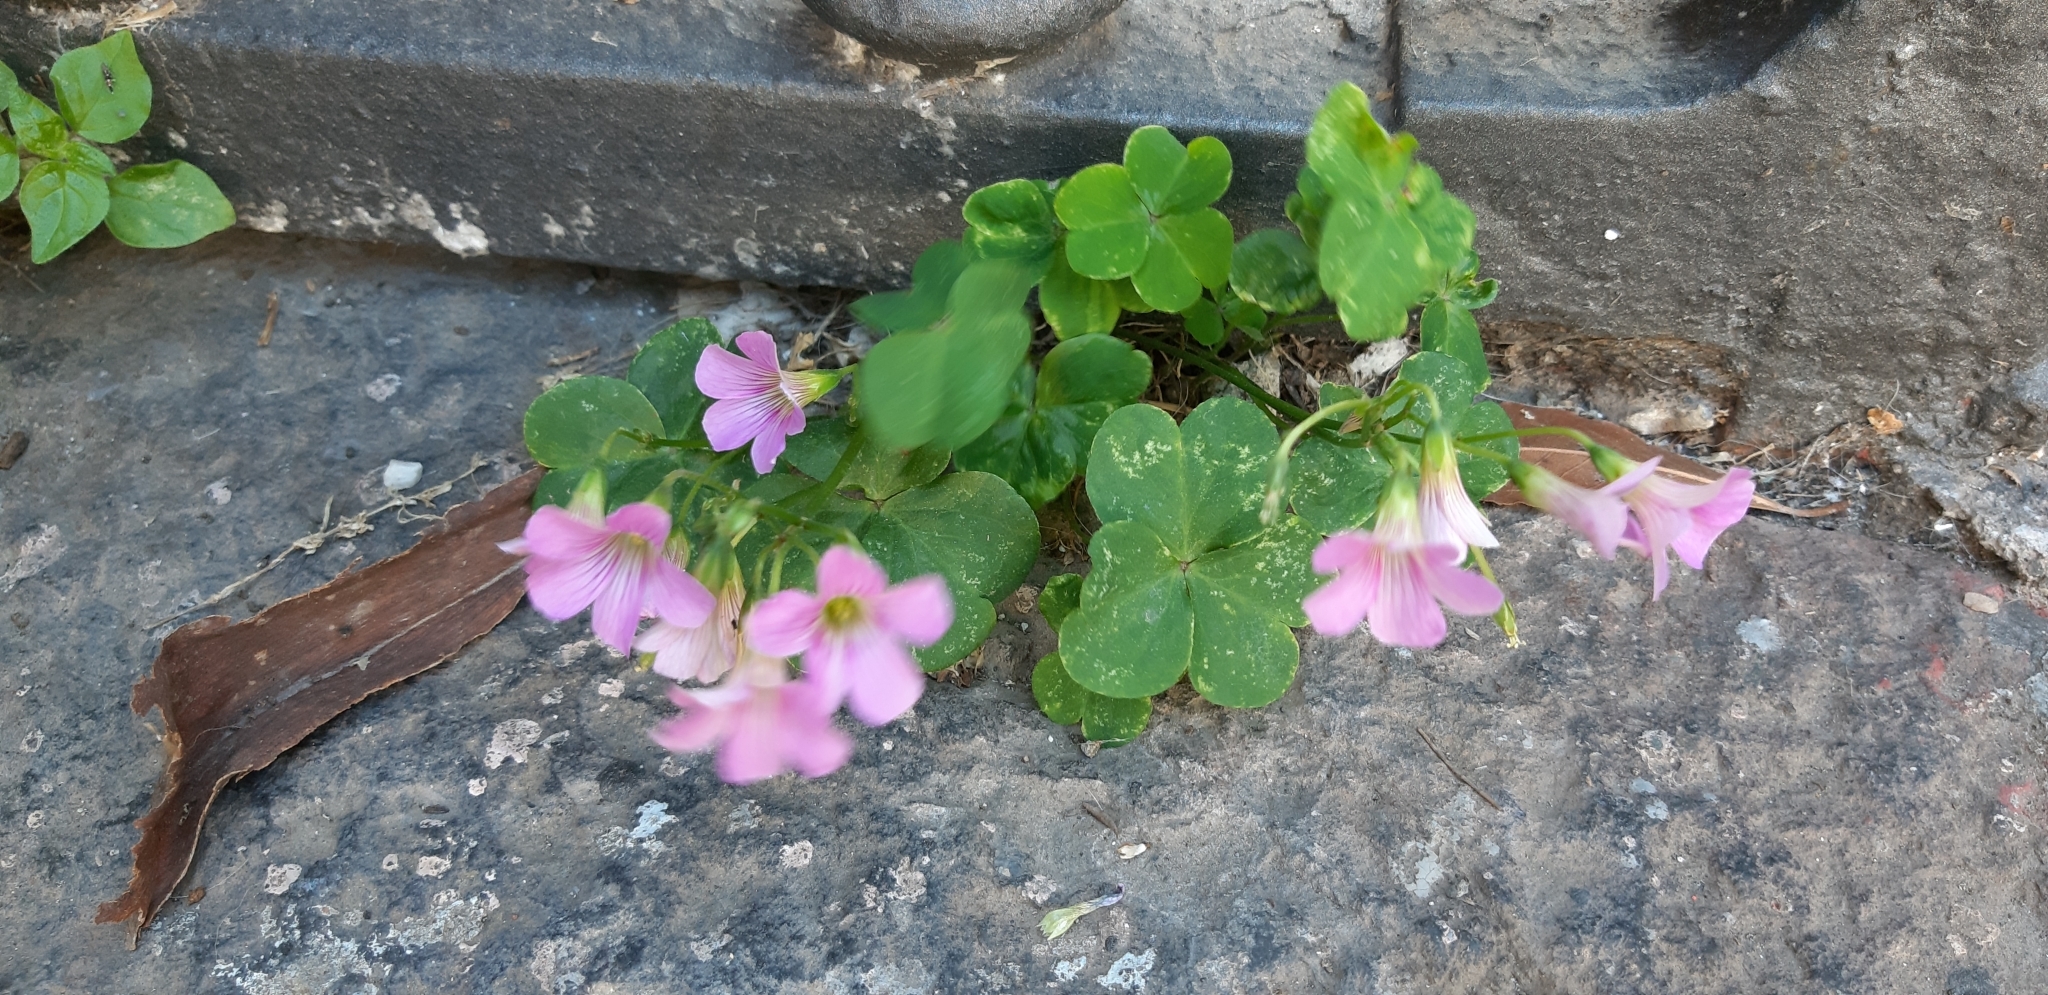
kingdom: Plantae
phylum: Tracheophyta
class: Magnoliopsida
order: Oxalidales
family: Oxalidaceae
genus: Oxalis
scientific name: Oxalis debilis
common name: Large-flowered pink-sorrel
